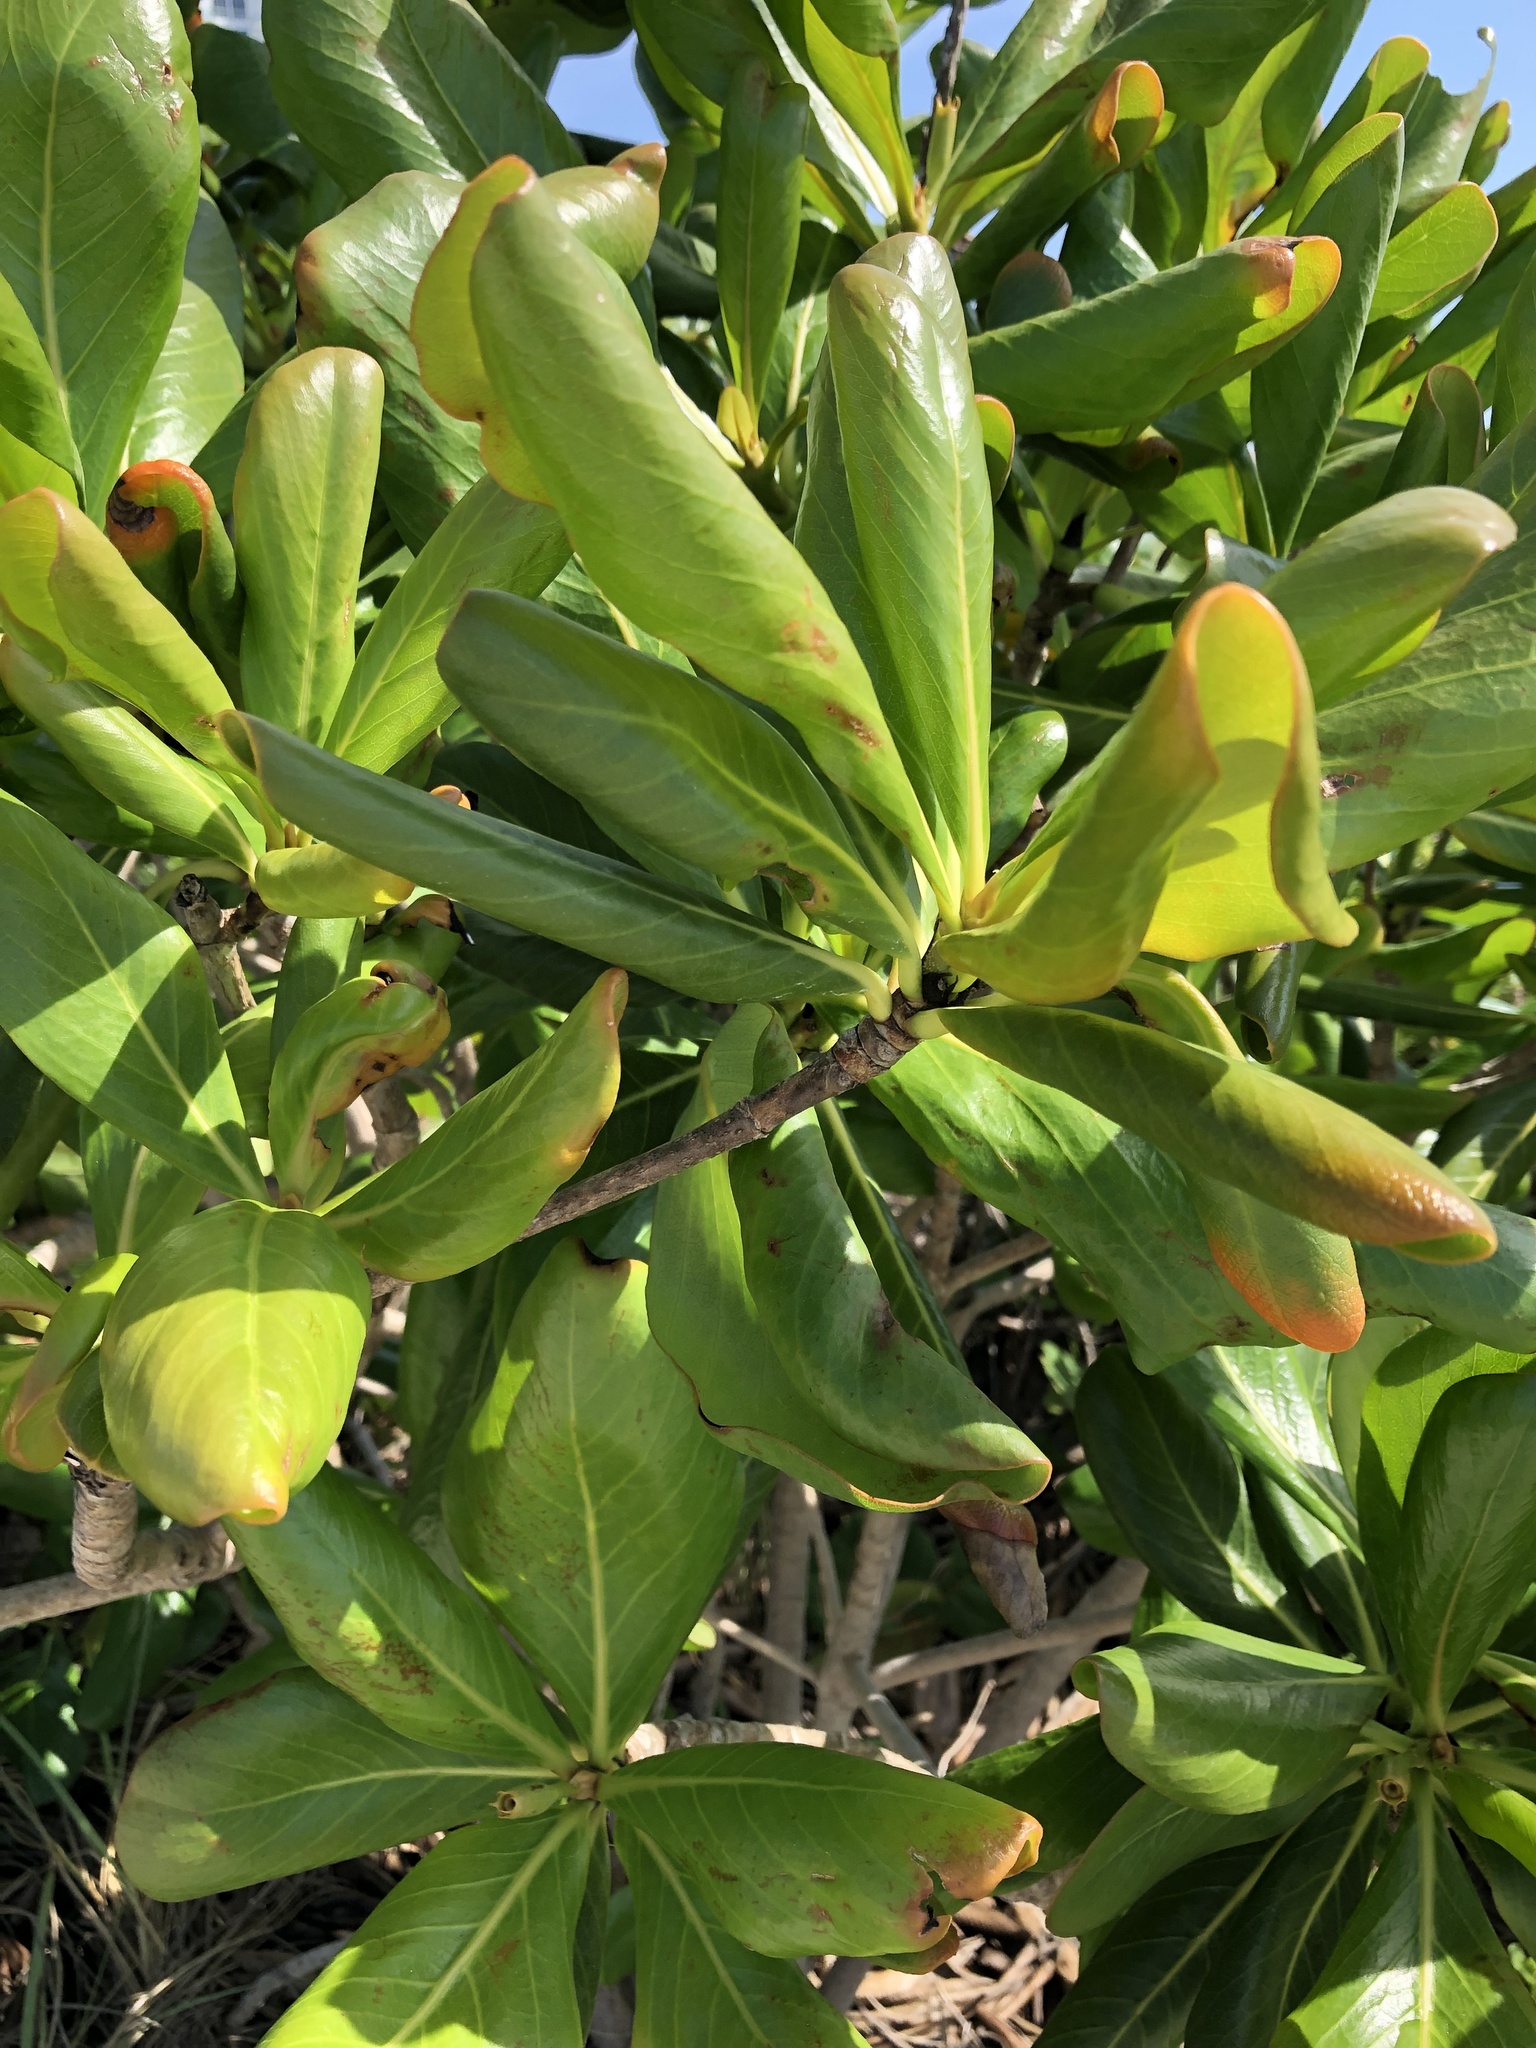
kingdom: Plantae
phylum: Tracheophyta
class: Magnoliopsida
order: Gentianales
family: Rubiaceae
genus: Casasia
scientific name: Casasia clusiifolia
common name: Seven-year apple
